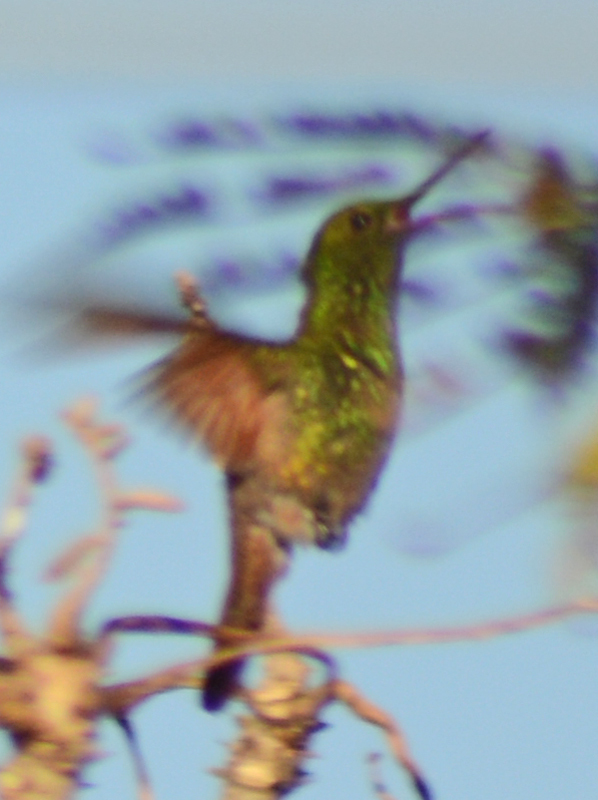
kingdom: Animalia
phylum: Chordata
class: Aves
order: Apodiformes
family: Trochilidae
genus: Saucerottia
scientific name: Saucerottia beryllina
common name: Berylline hummingbird
